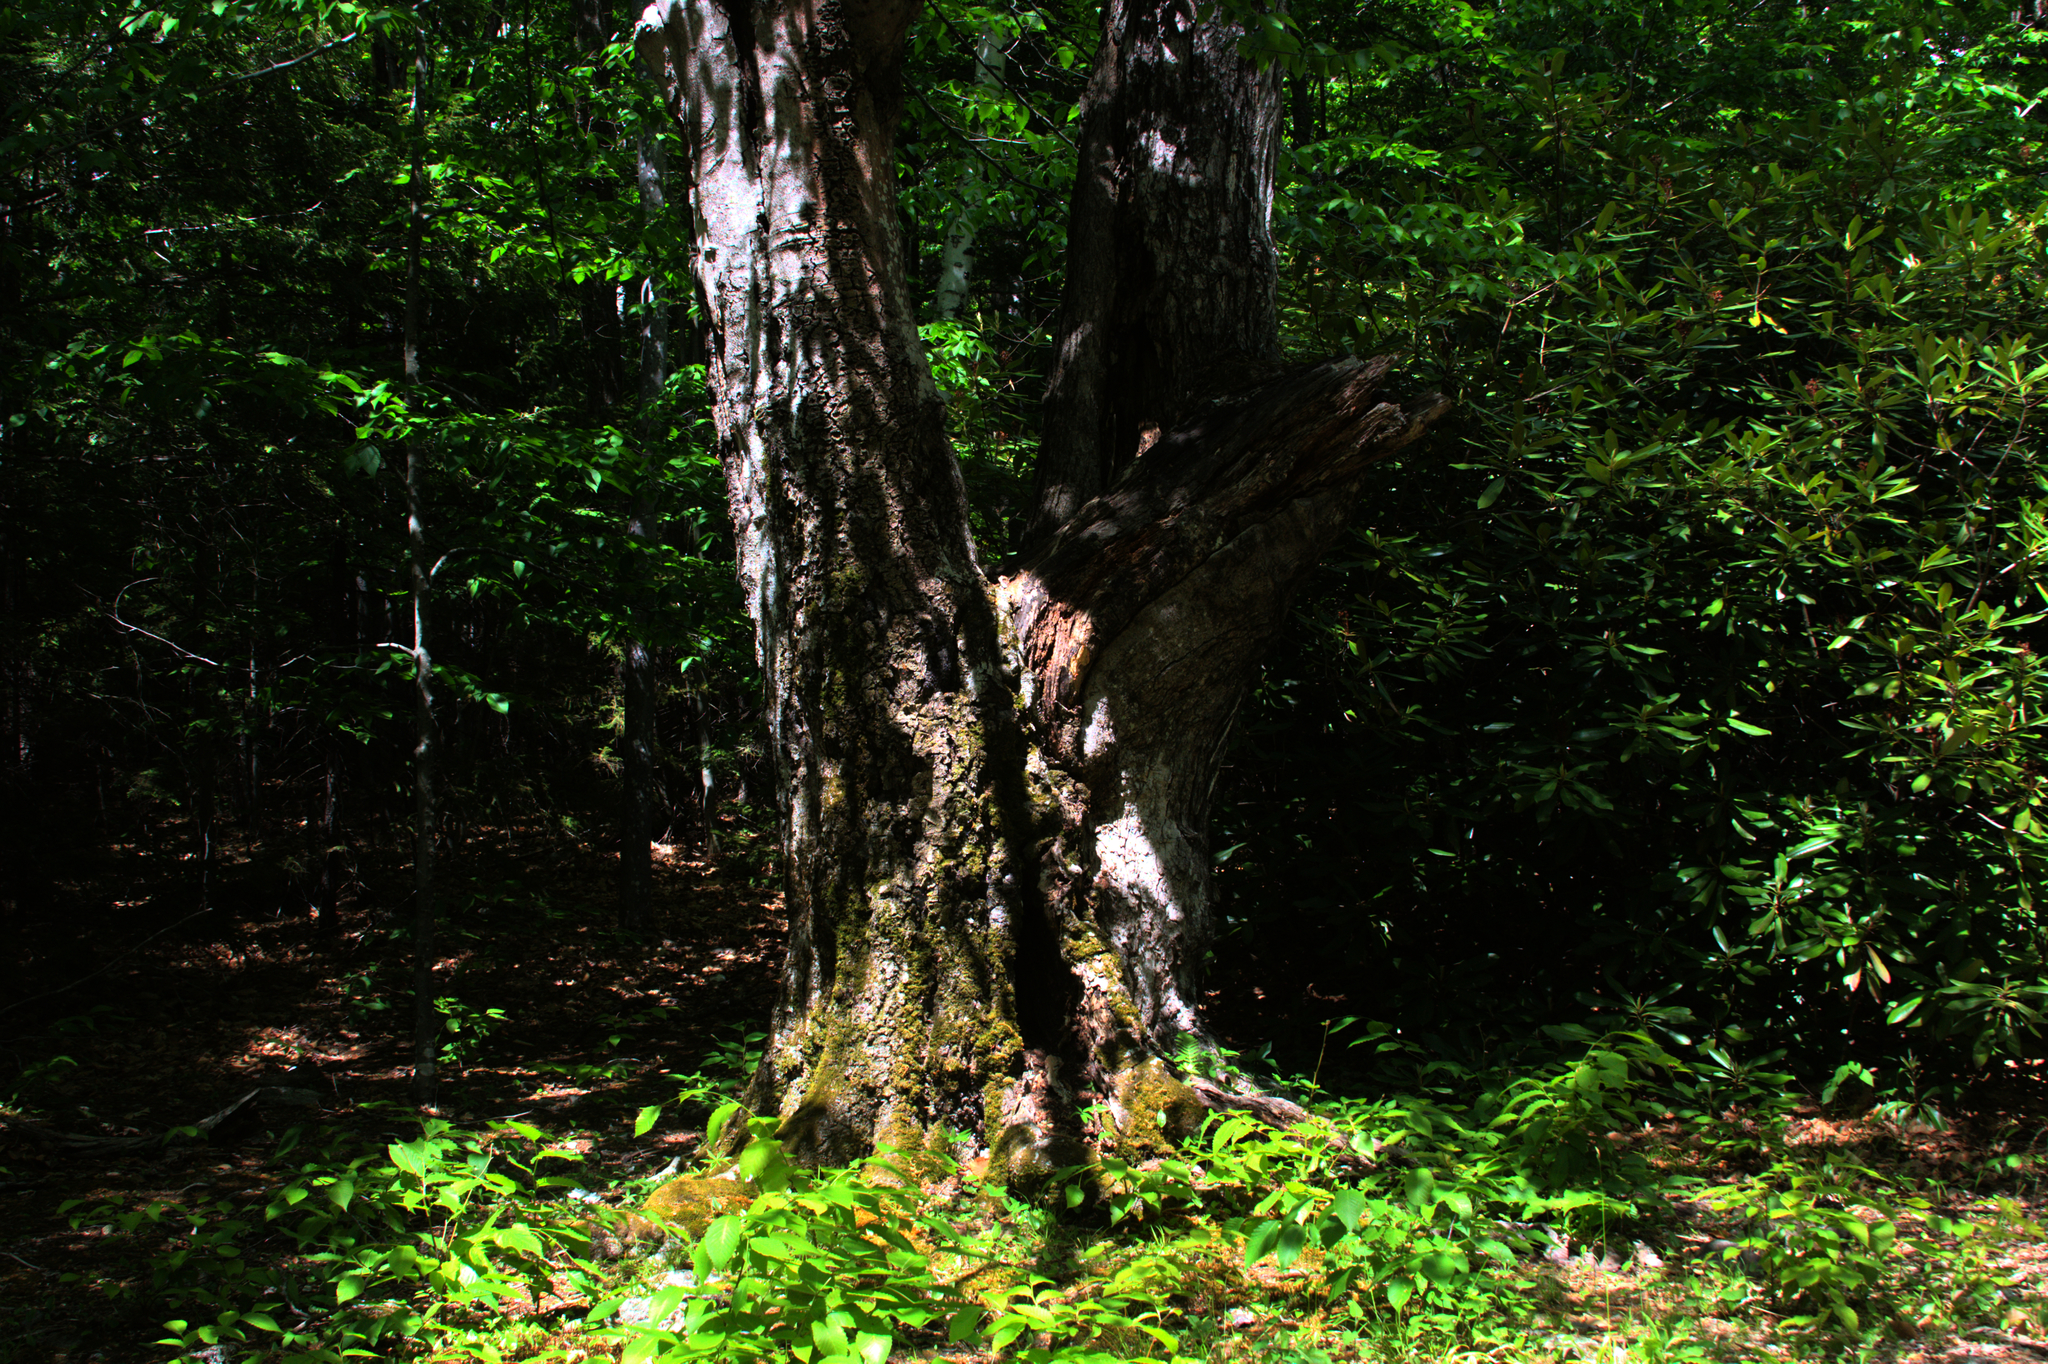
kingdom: Plantae
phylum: Tracheophyta
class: Magnoliopsida
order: Fagales
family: Fagaceae
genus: Fagus
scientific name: Fagus grandifolia
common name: American beech
